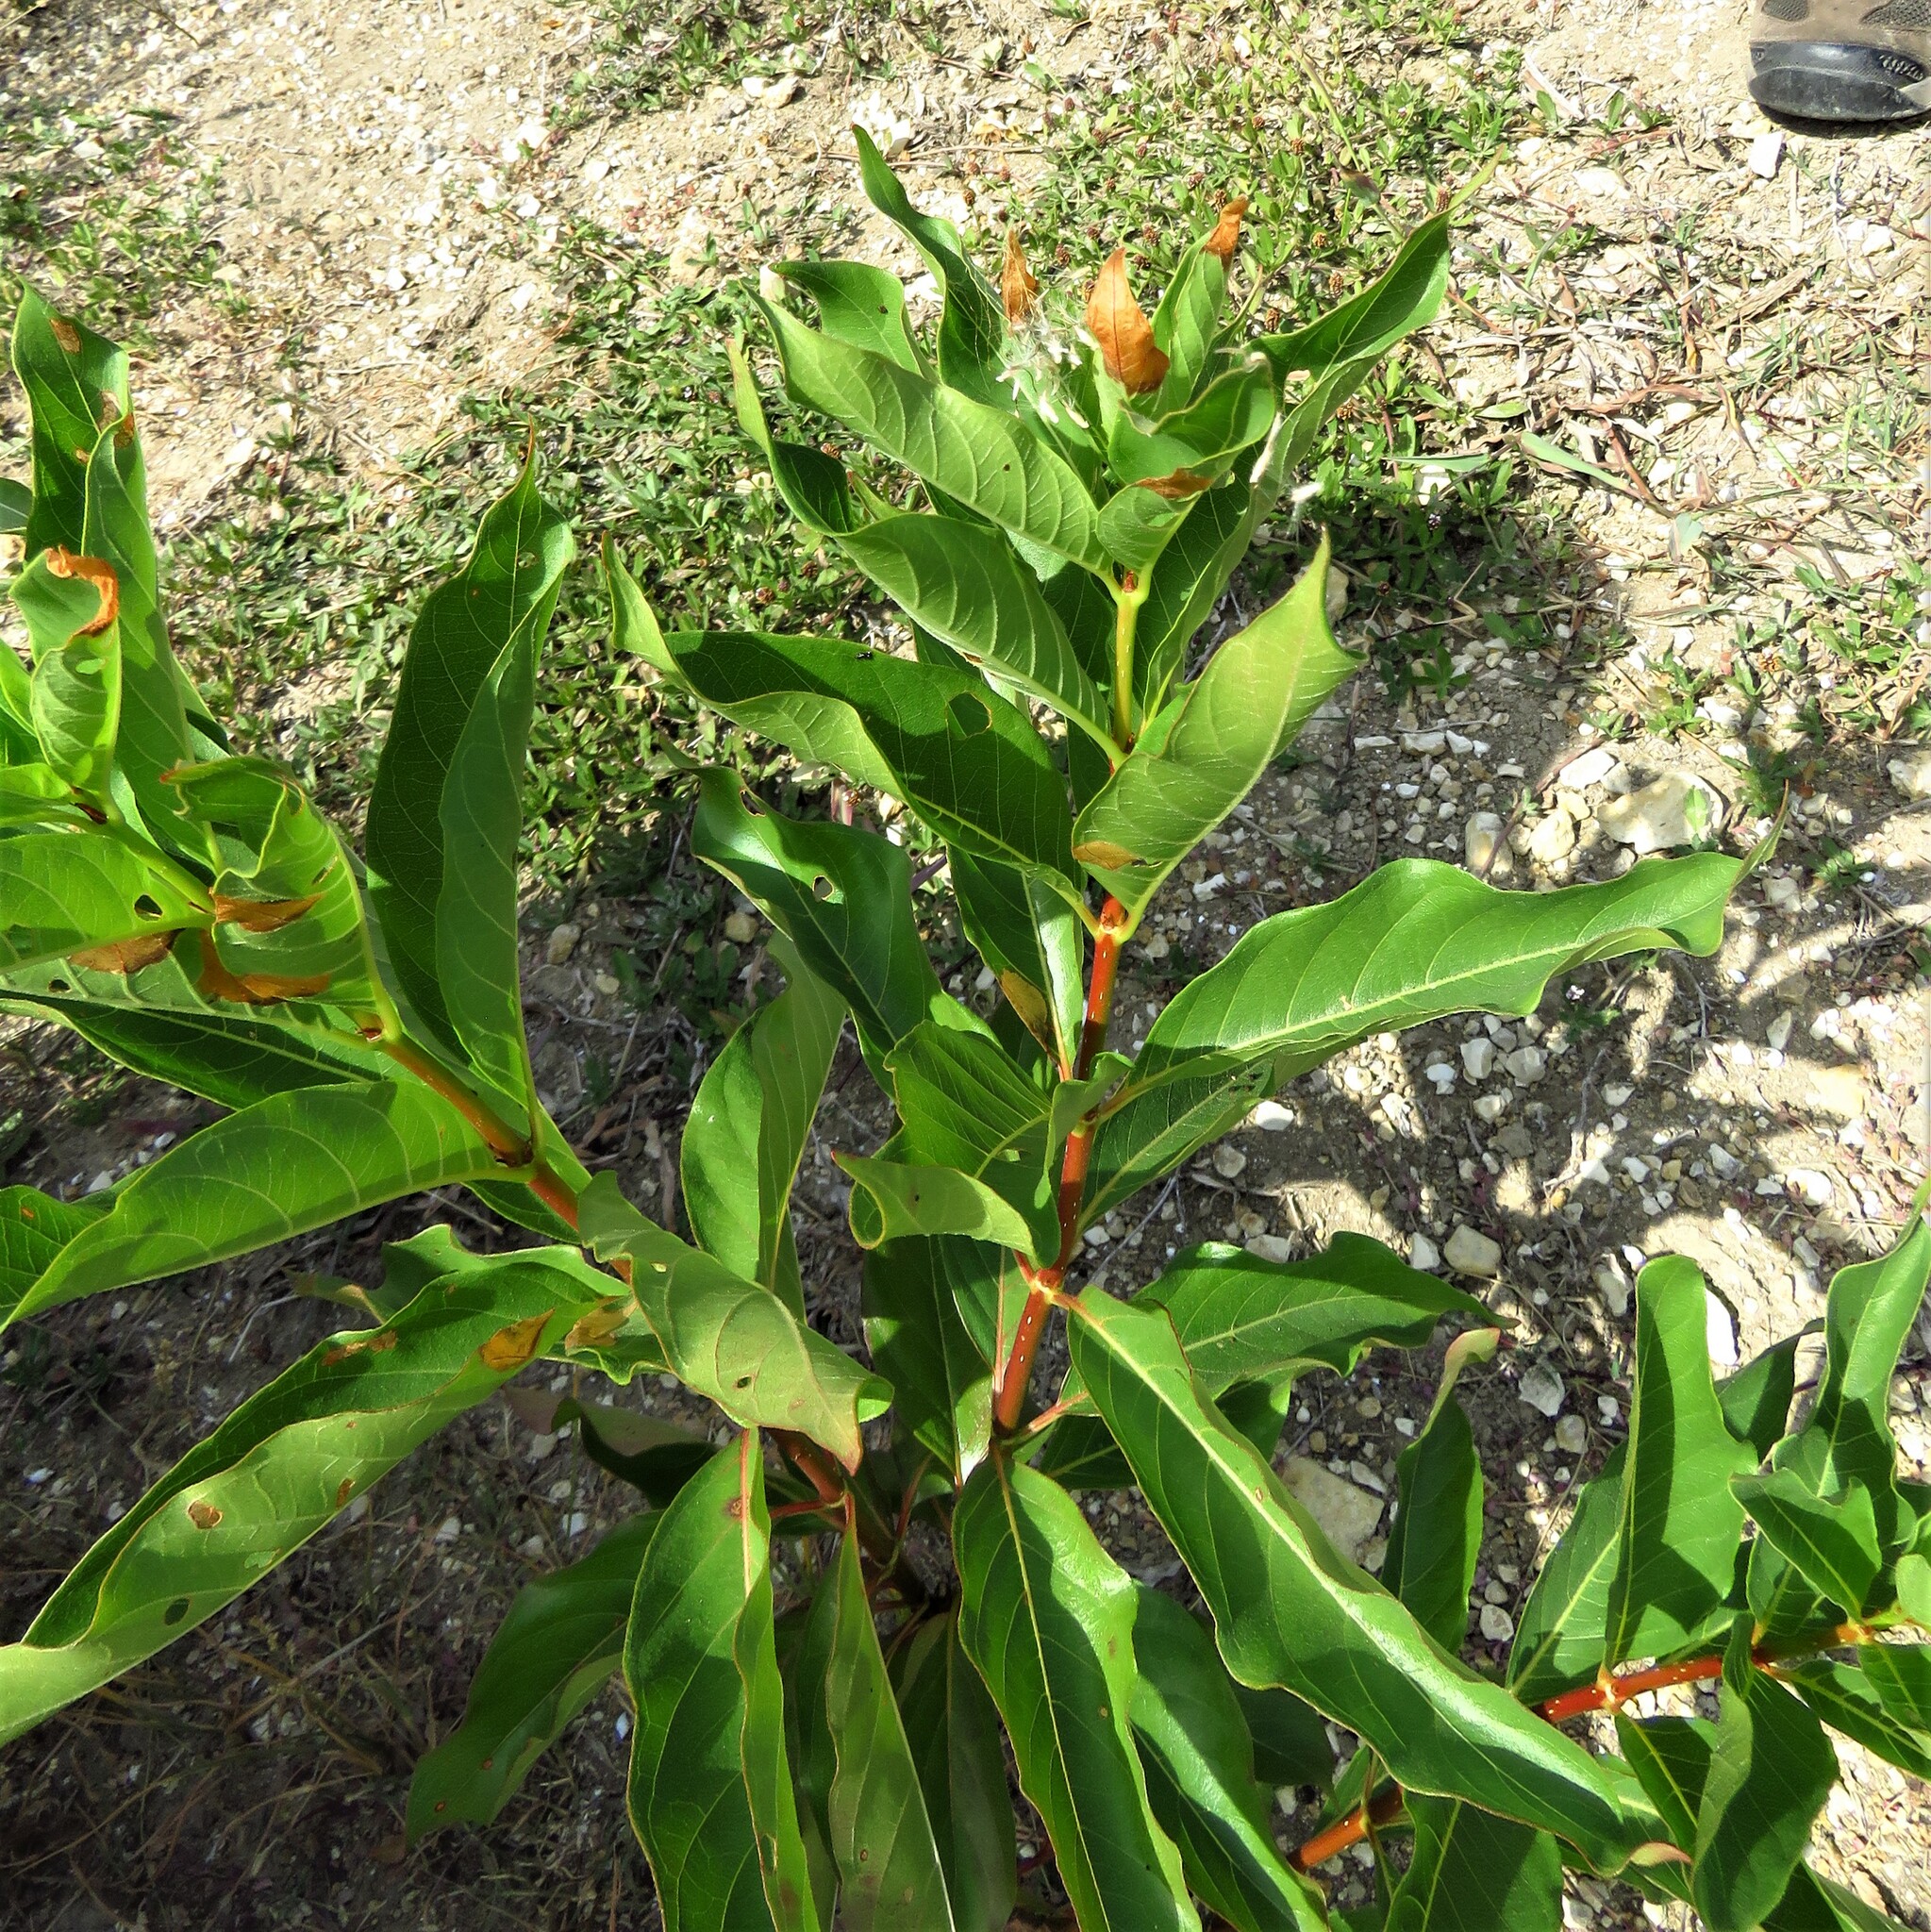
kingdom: Plantae
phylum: Tracheophyta
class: Magnoliopsida
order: Gentianales
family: Rubiaceae
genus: Cephalanthus
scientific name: Cephalanthus occidentalis
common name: Button-willow
